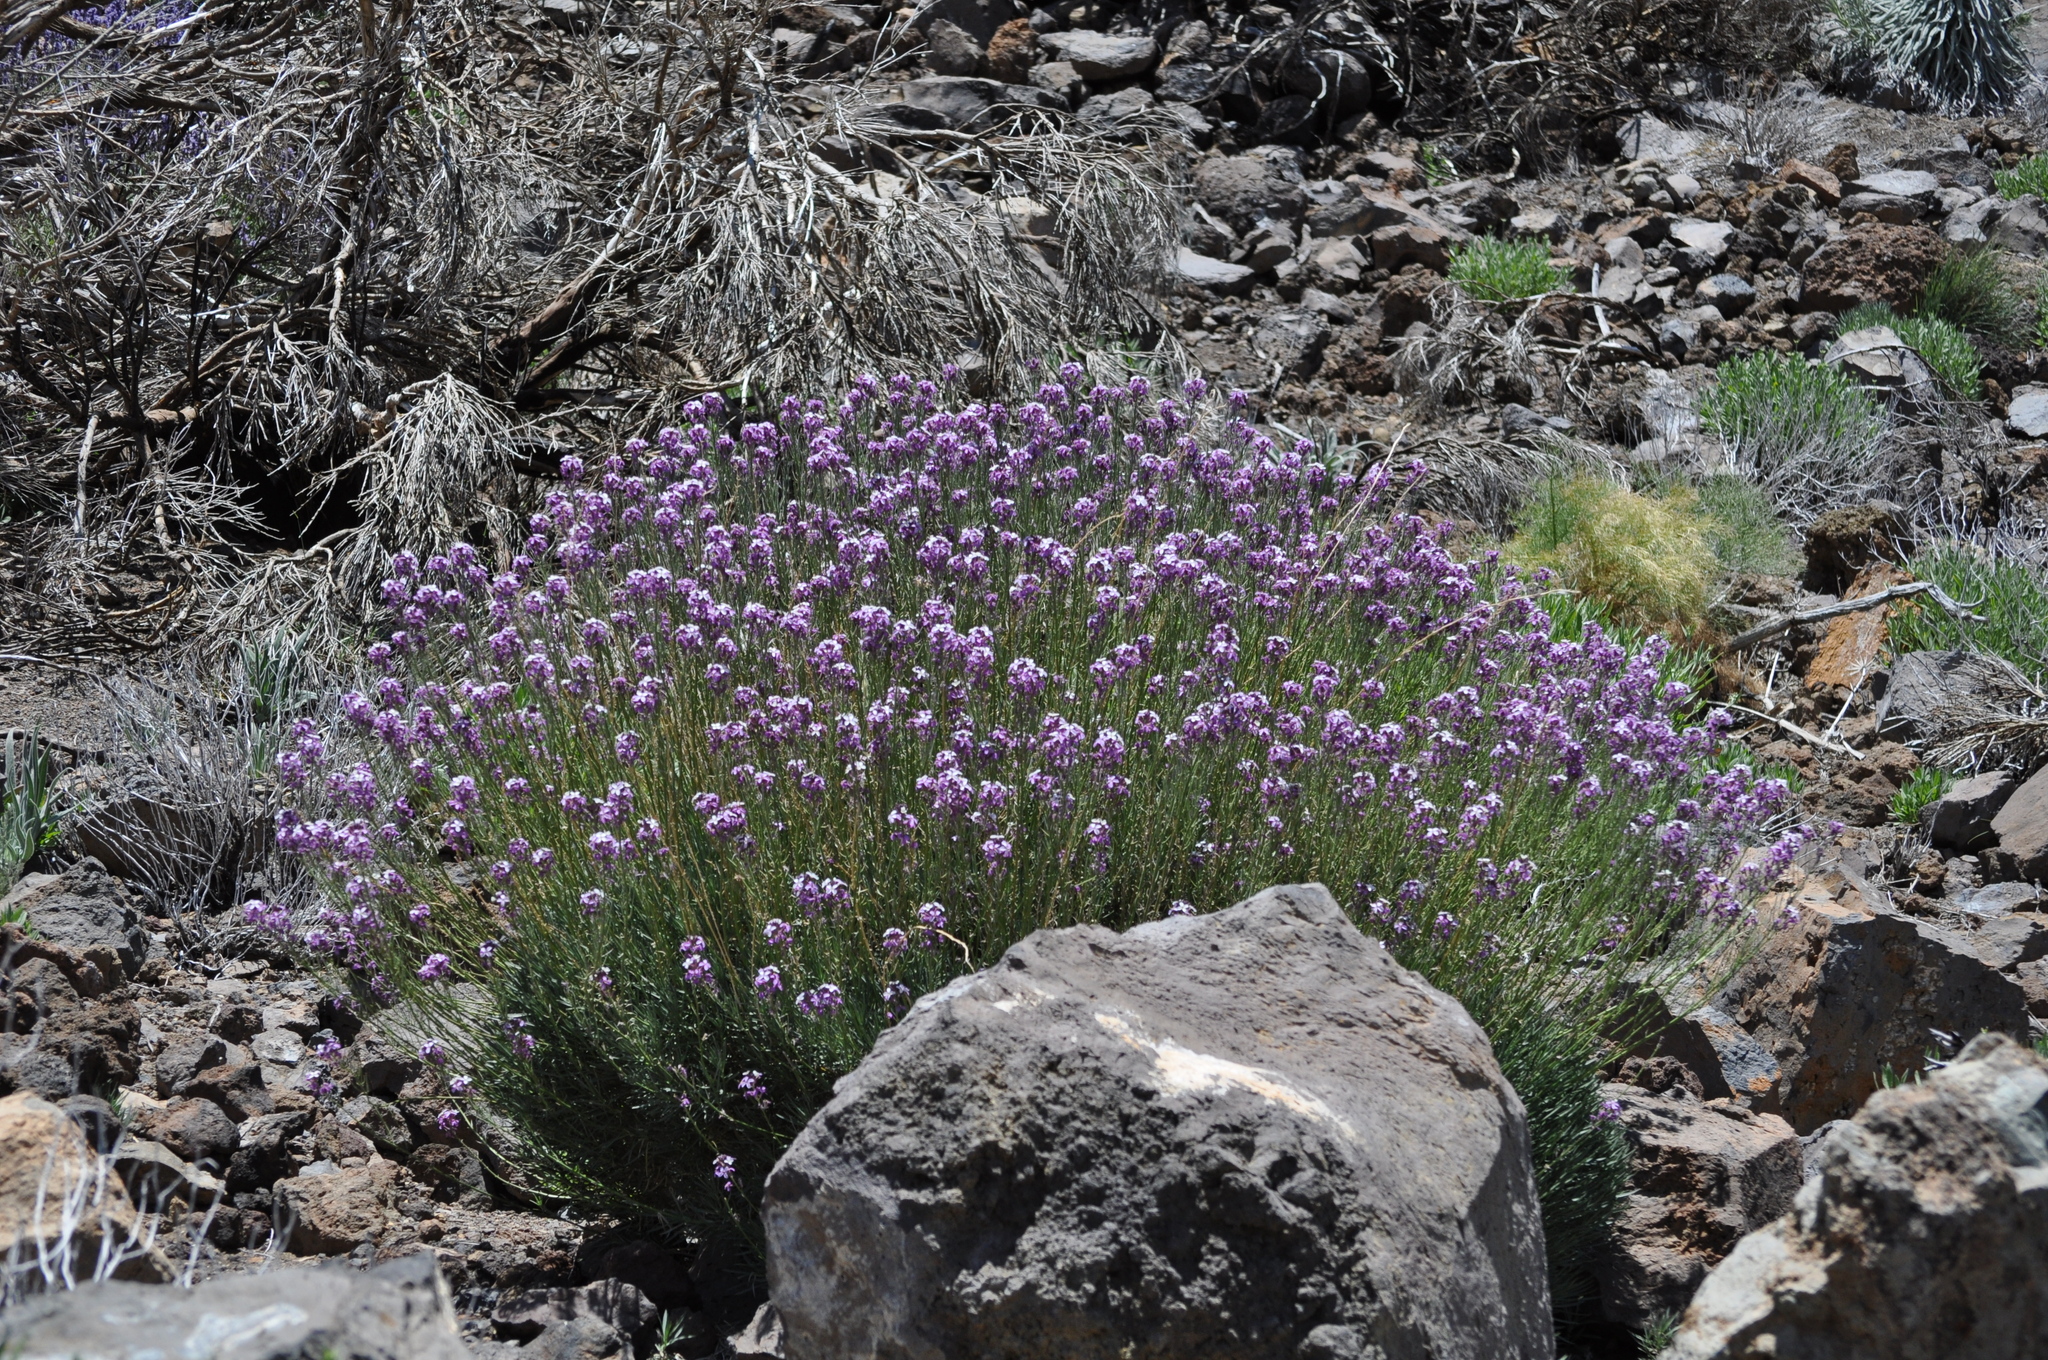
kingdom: Plantae
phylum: Tracheophyta
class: Magnoliopsida
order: Brassicales
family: Brassicaceae
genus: Erysimum
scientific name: Erysimum scoparium
